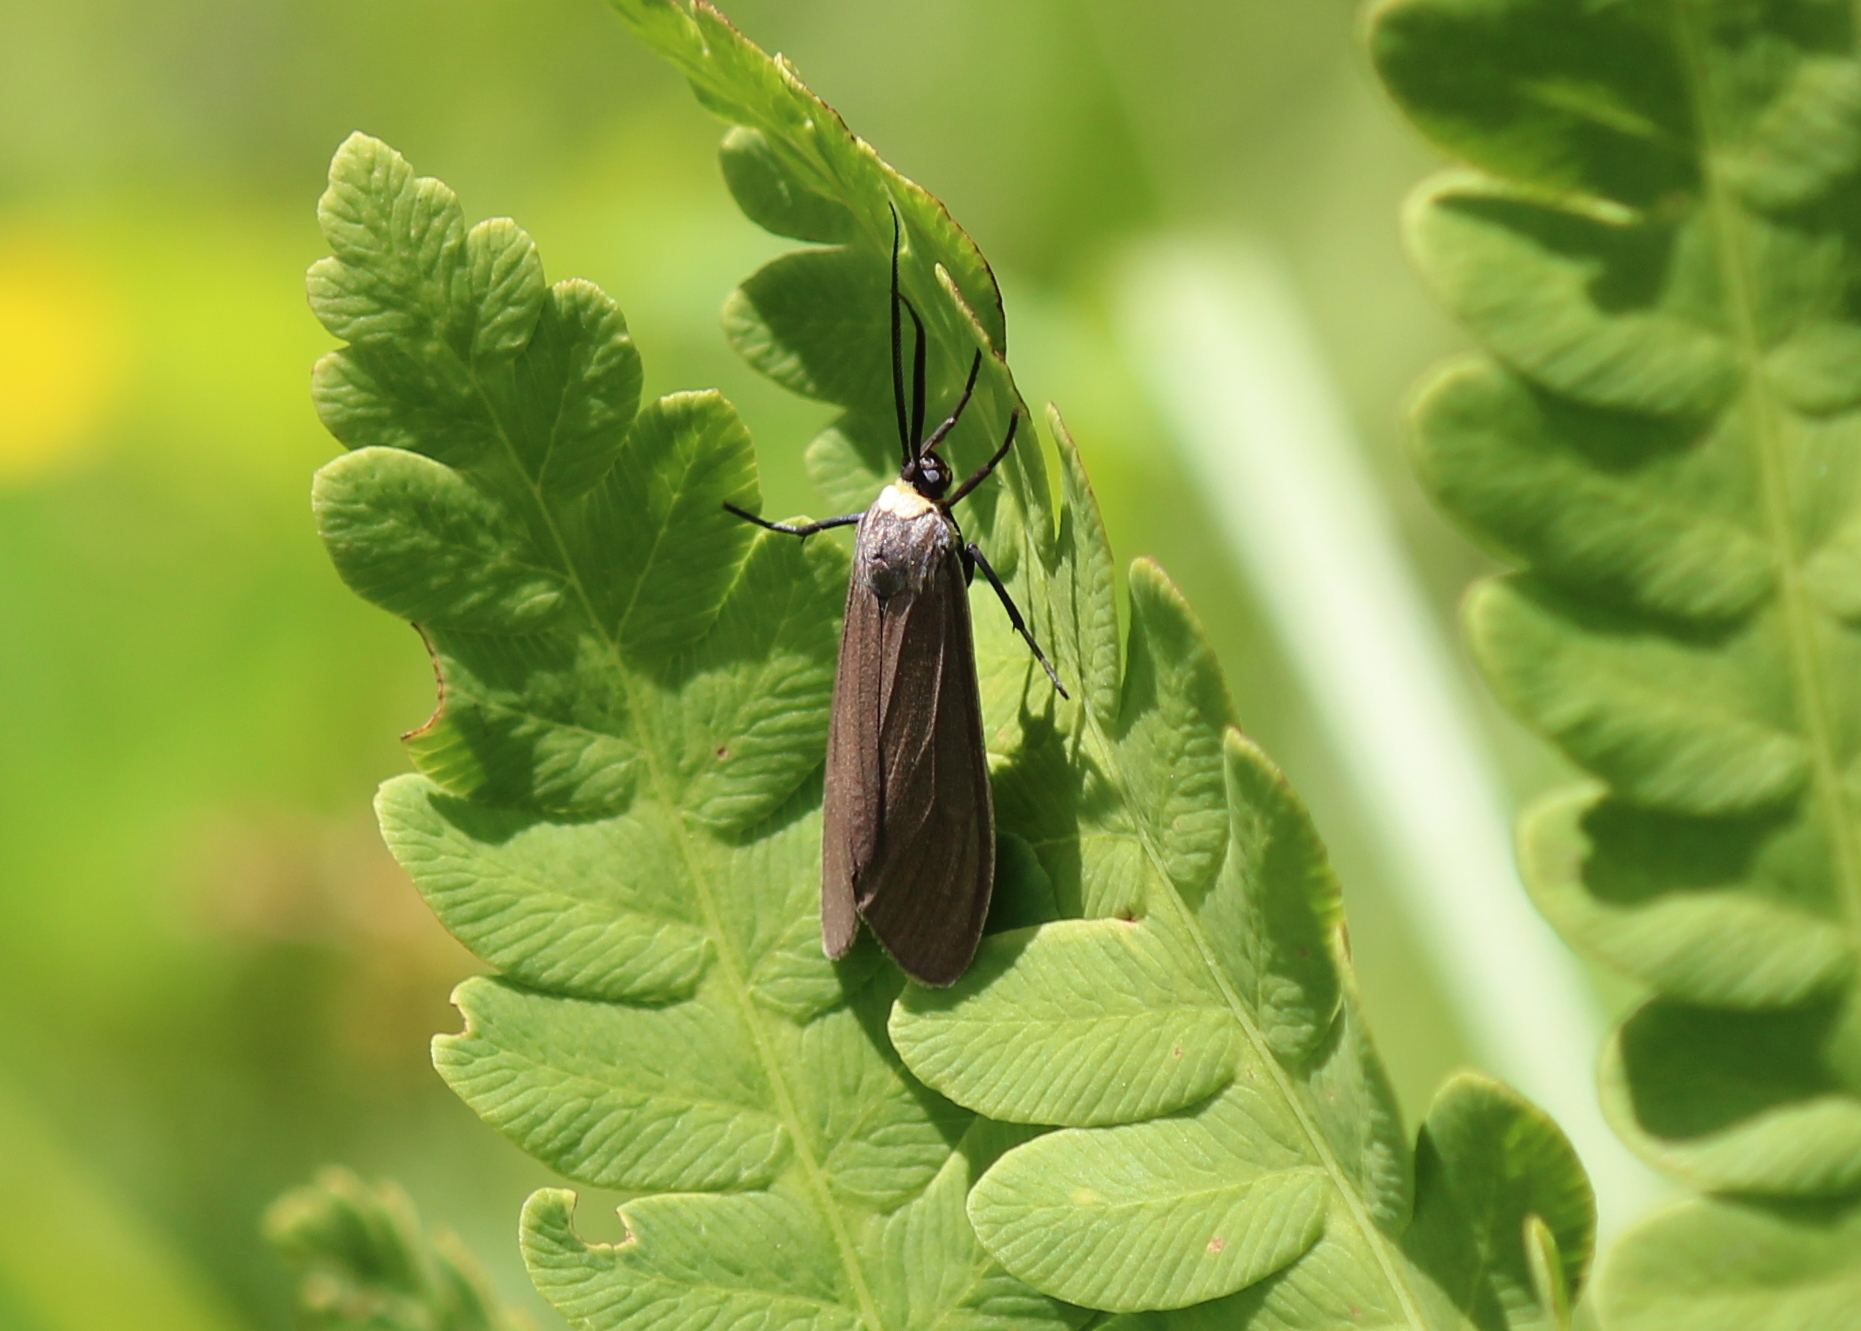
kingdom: Animalia
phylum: Arthropoda
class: Insecta
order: Lepidoptera
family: Erebidae
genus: Cisseps
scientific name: Cisseps fulvicollis
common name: Yellow-collared scape moth
